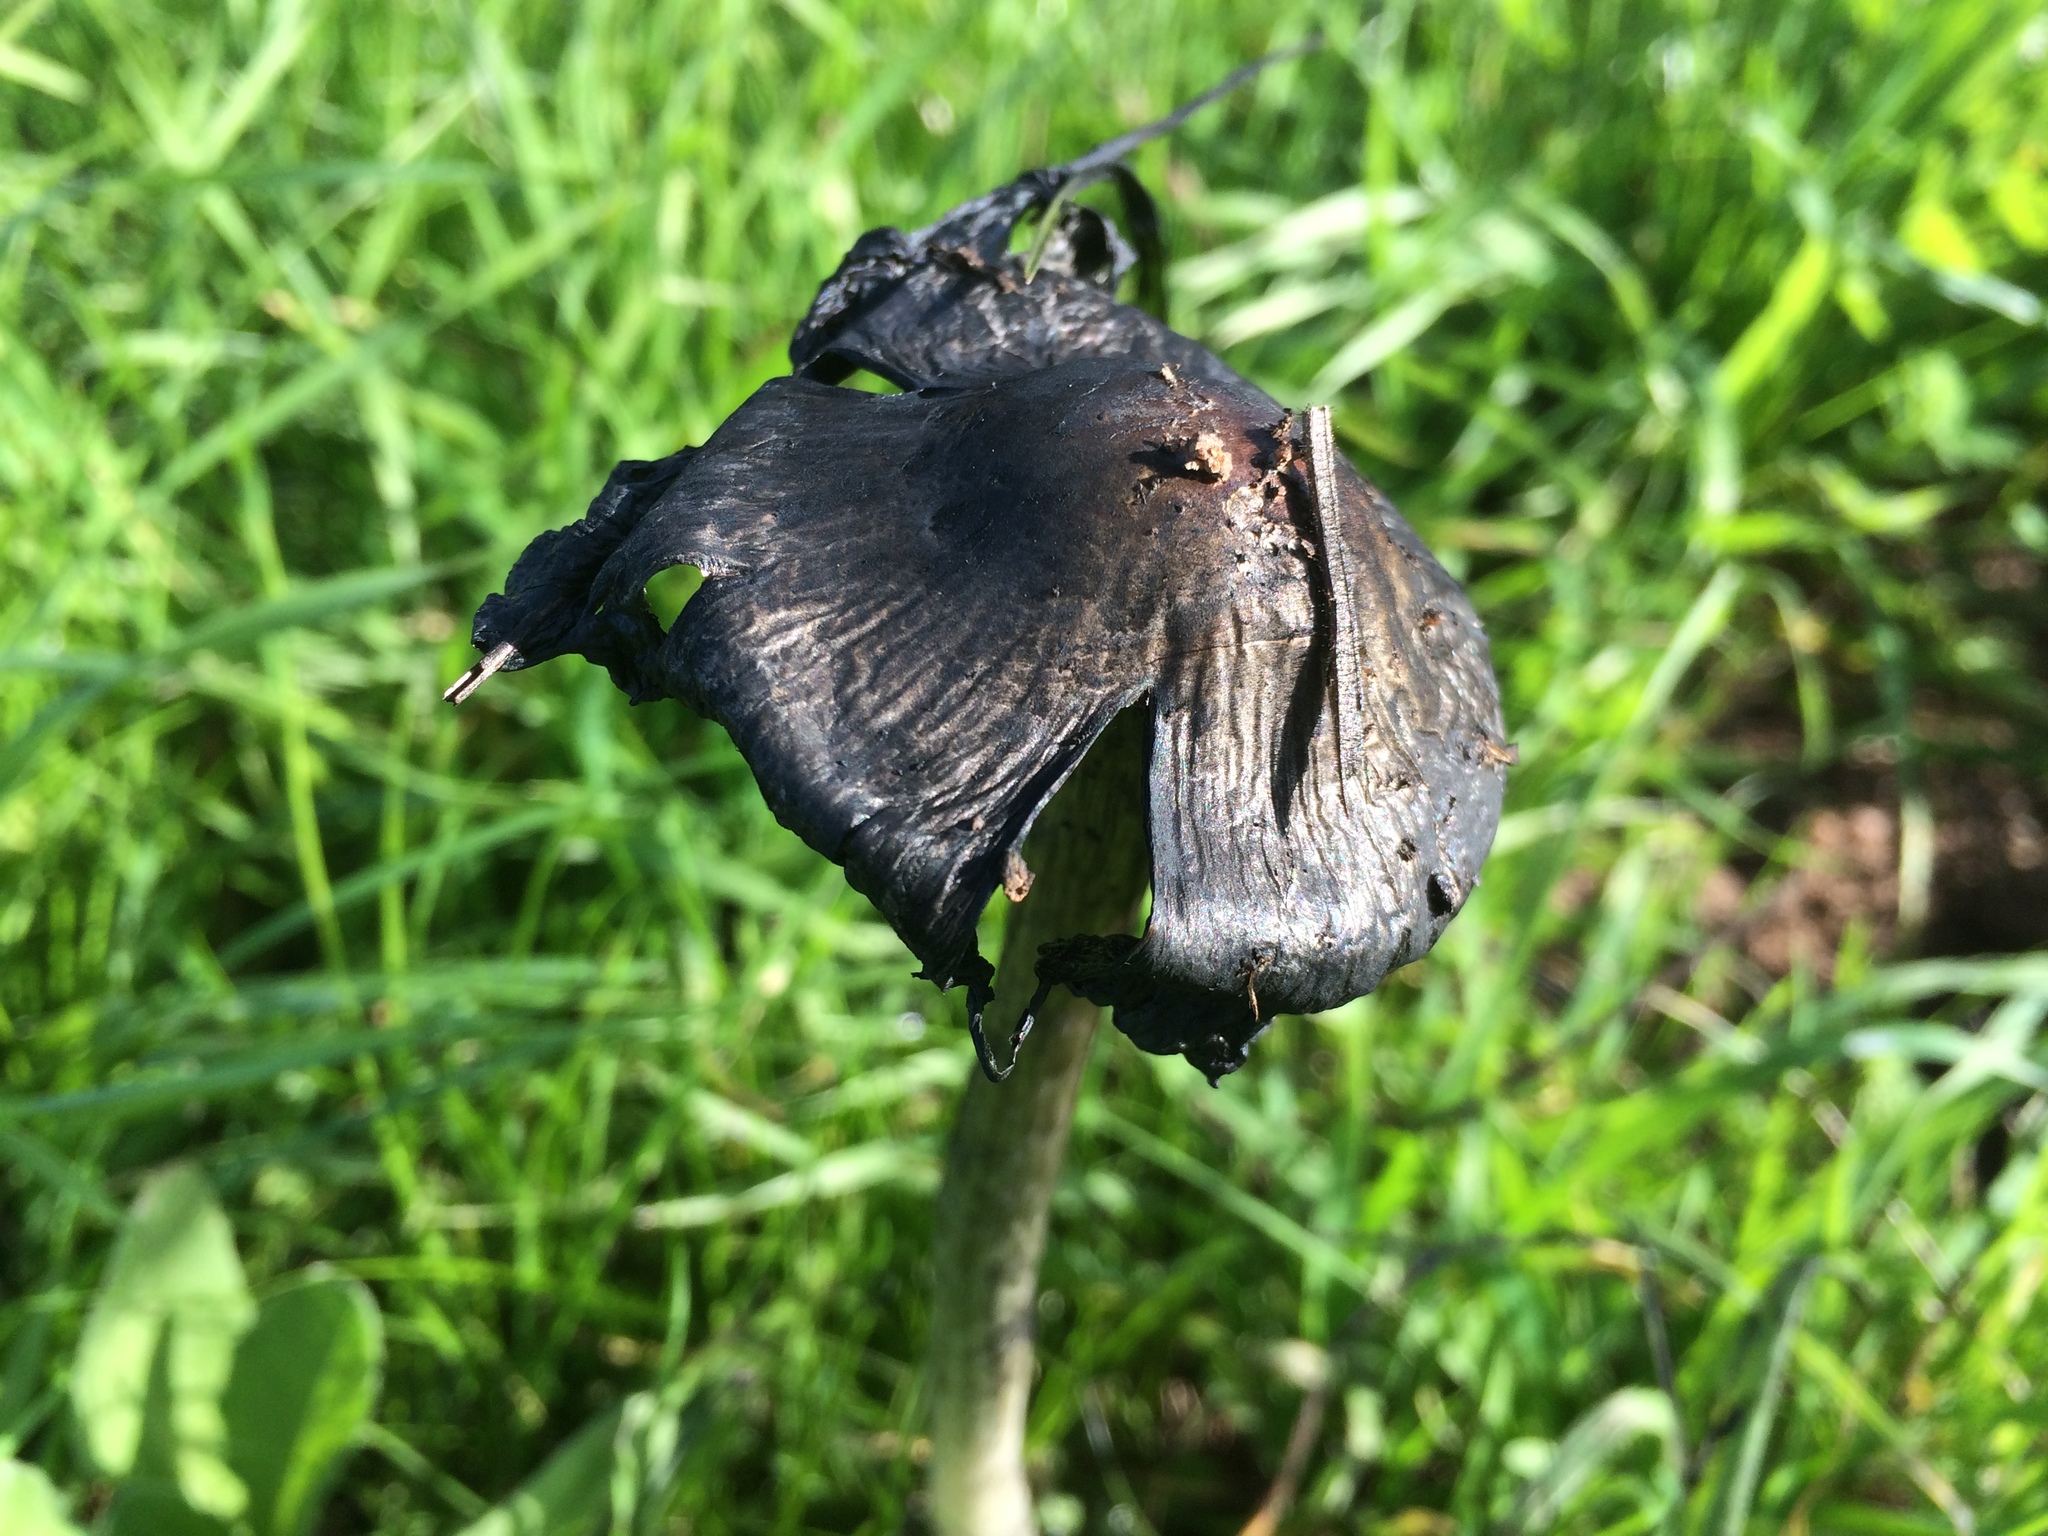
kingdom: Fungi
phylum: Basidiomycota
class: Agaricomycetes
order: Agaricales
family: Agaricaceae
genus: Coprinus
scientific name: Coprinus comatus
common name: Lawyer's wig
